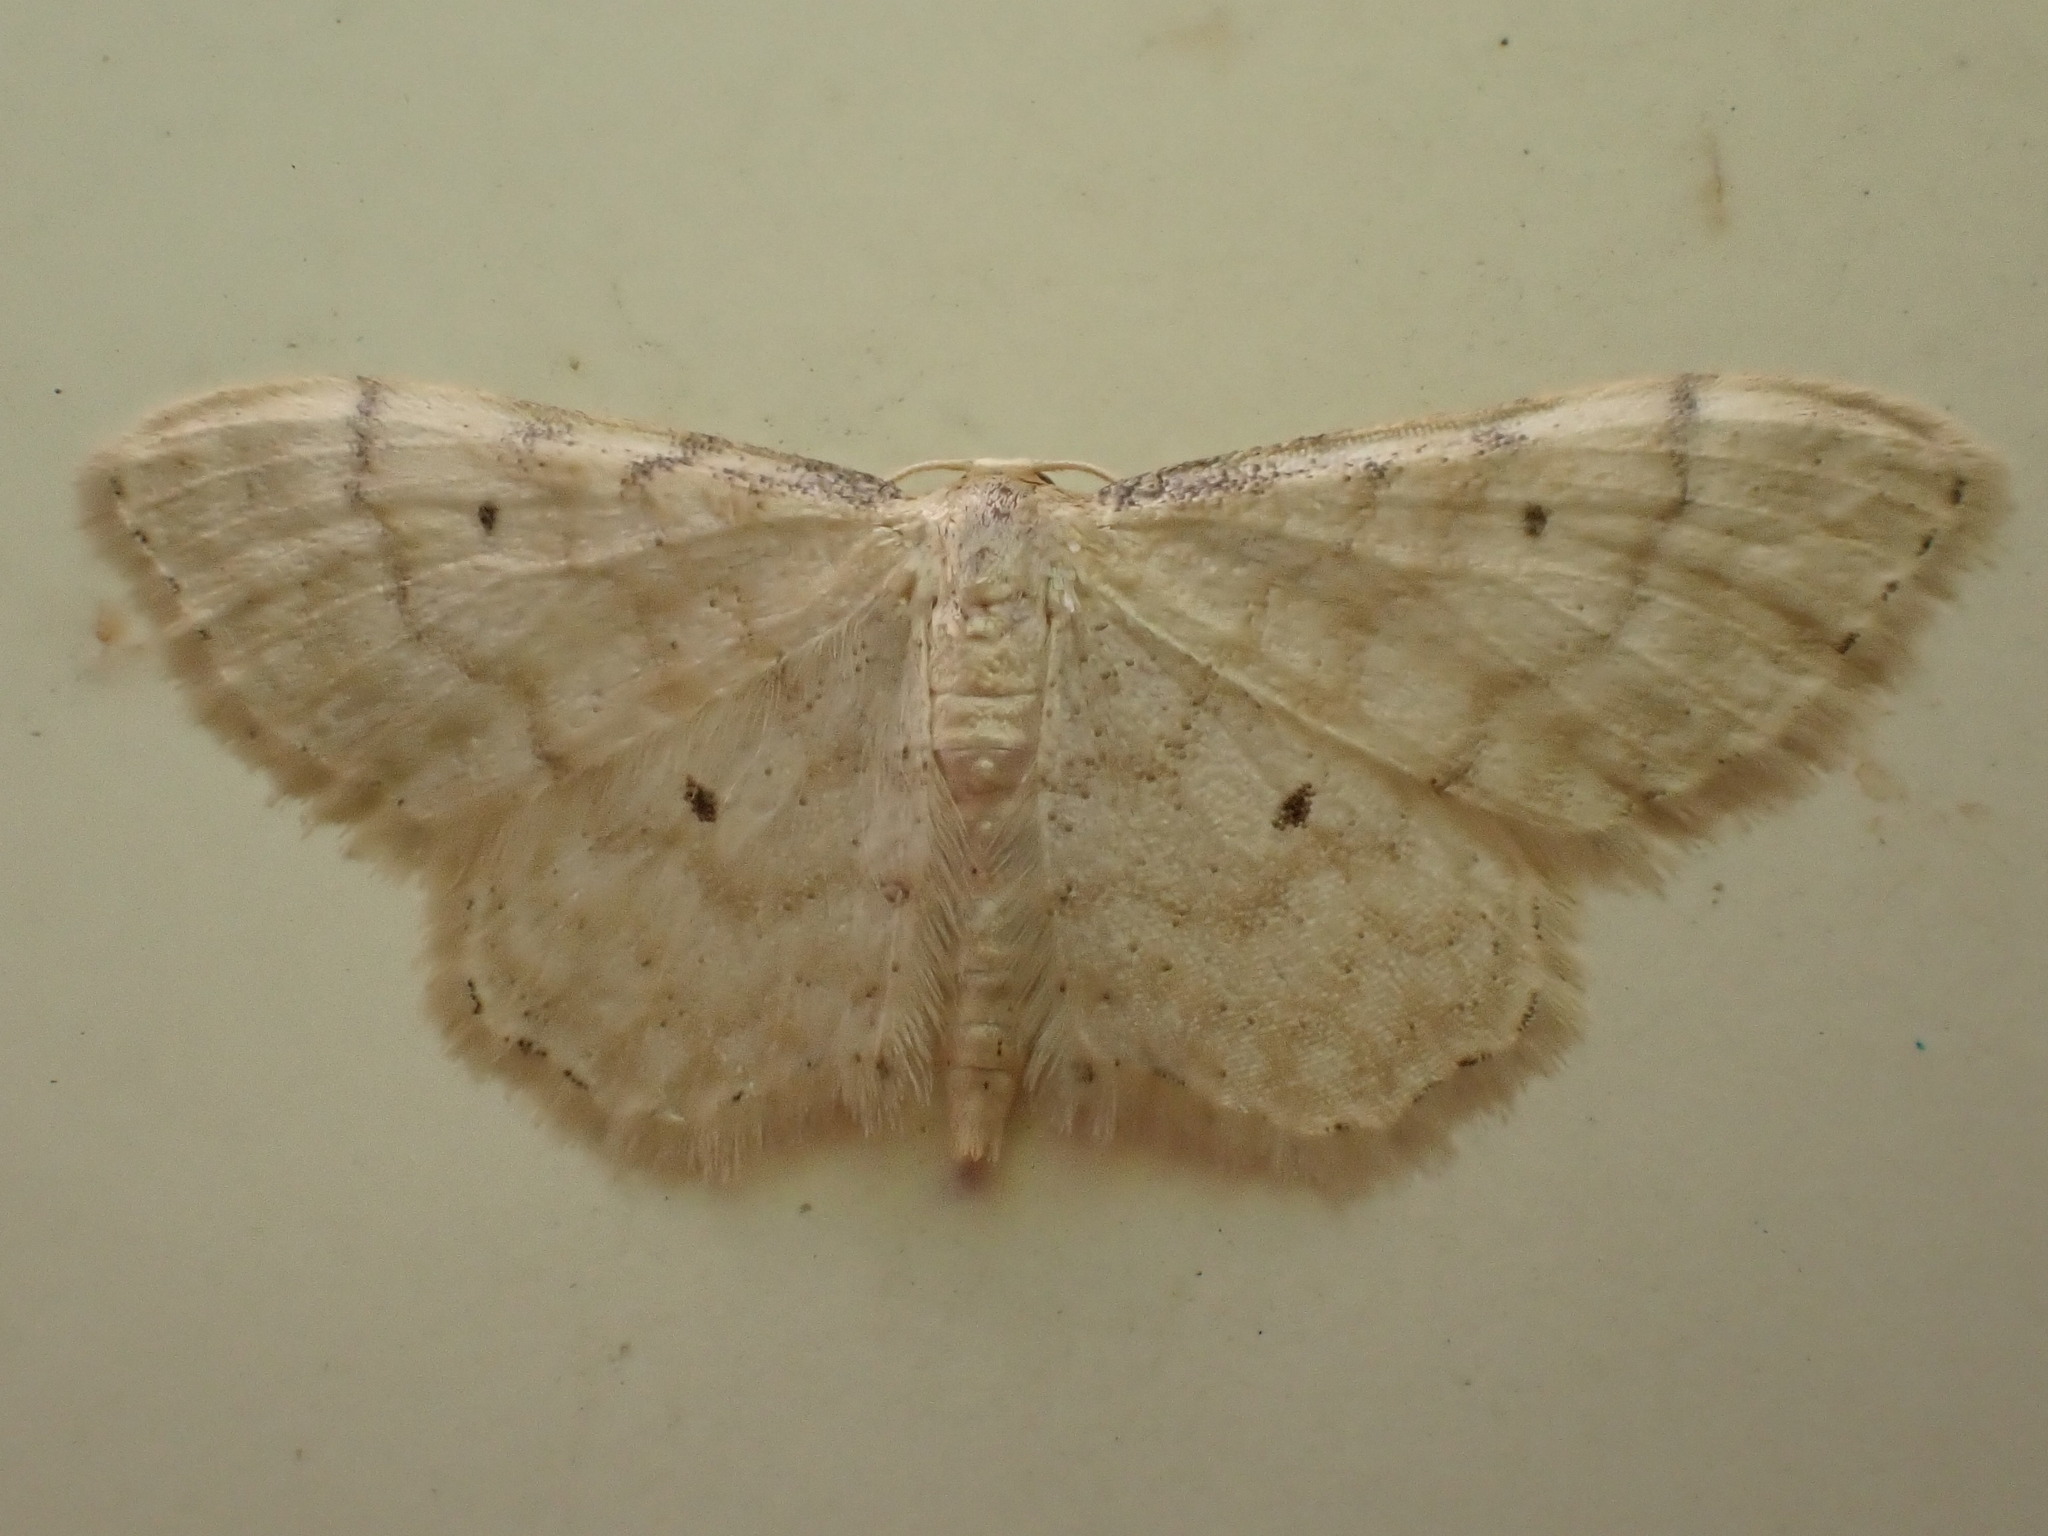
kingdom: Animalia
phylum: Arthropoda
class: Insecta
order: Lepidoptera
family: Geometridae
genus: Idaea
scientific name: Idaea fuscovenosa
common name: Dwarf cream wave
